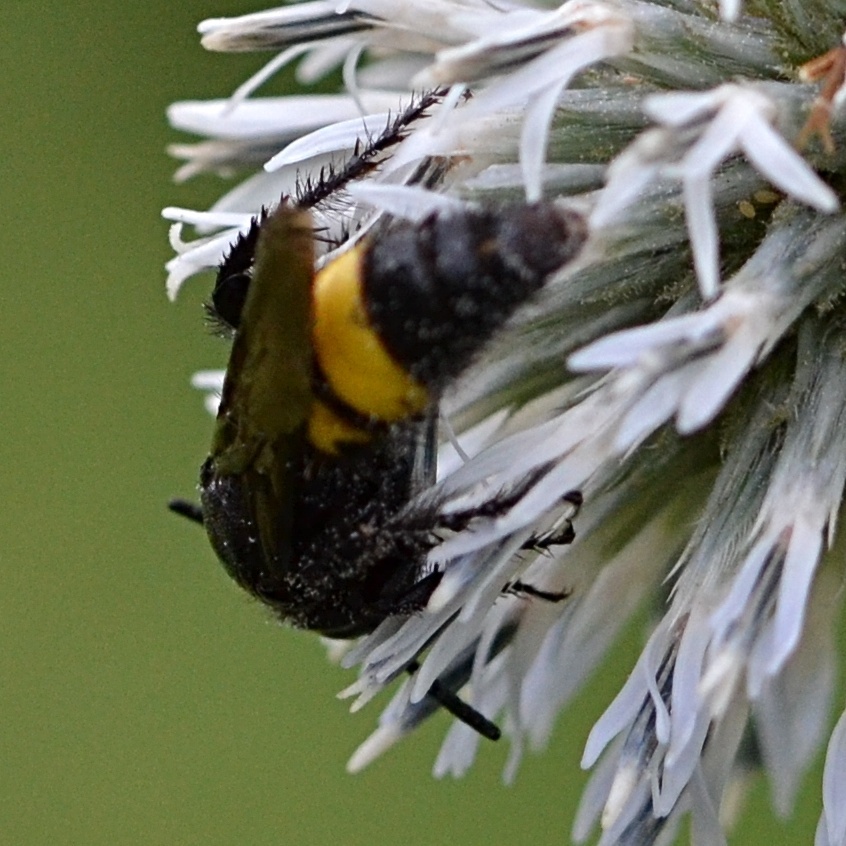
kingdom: Animalia
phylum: Arthropoda
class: Insecta
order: Hymenoptera
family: Scoliidae
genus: Scolia
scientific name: Scolia hirta
